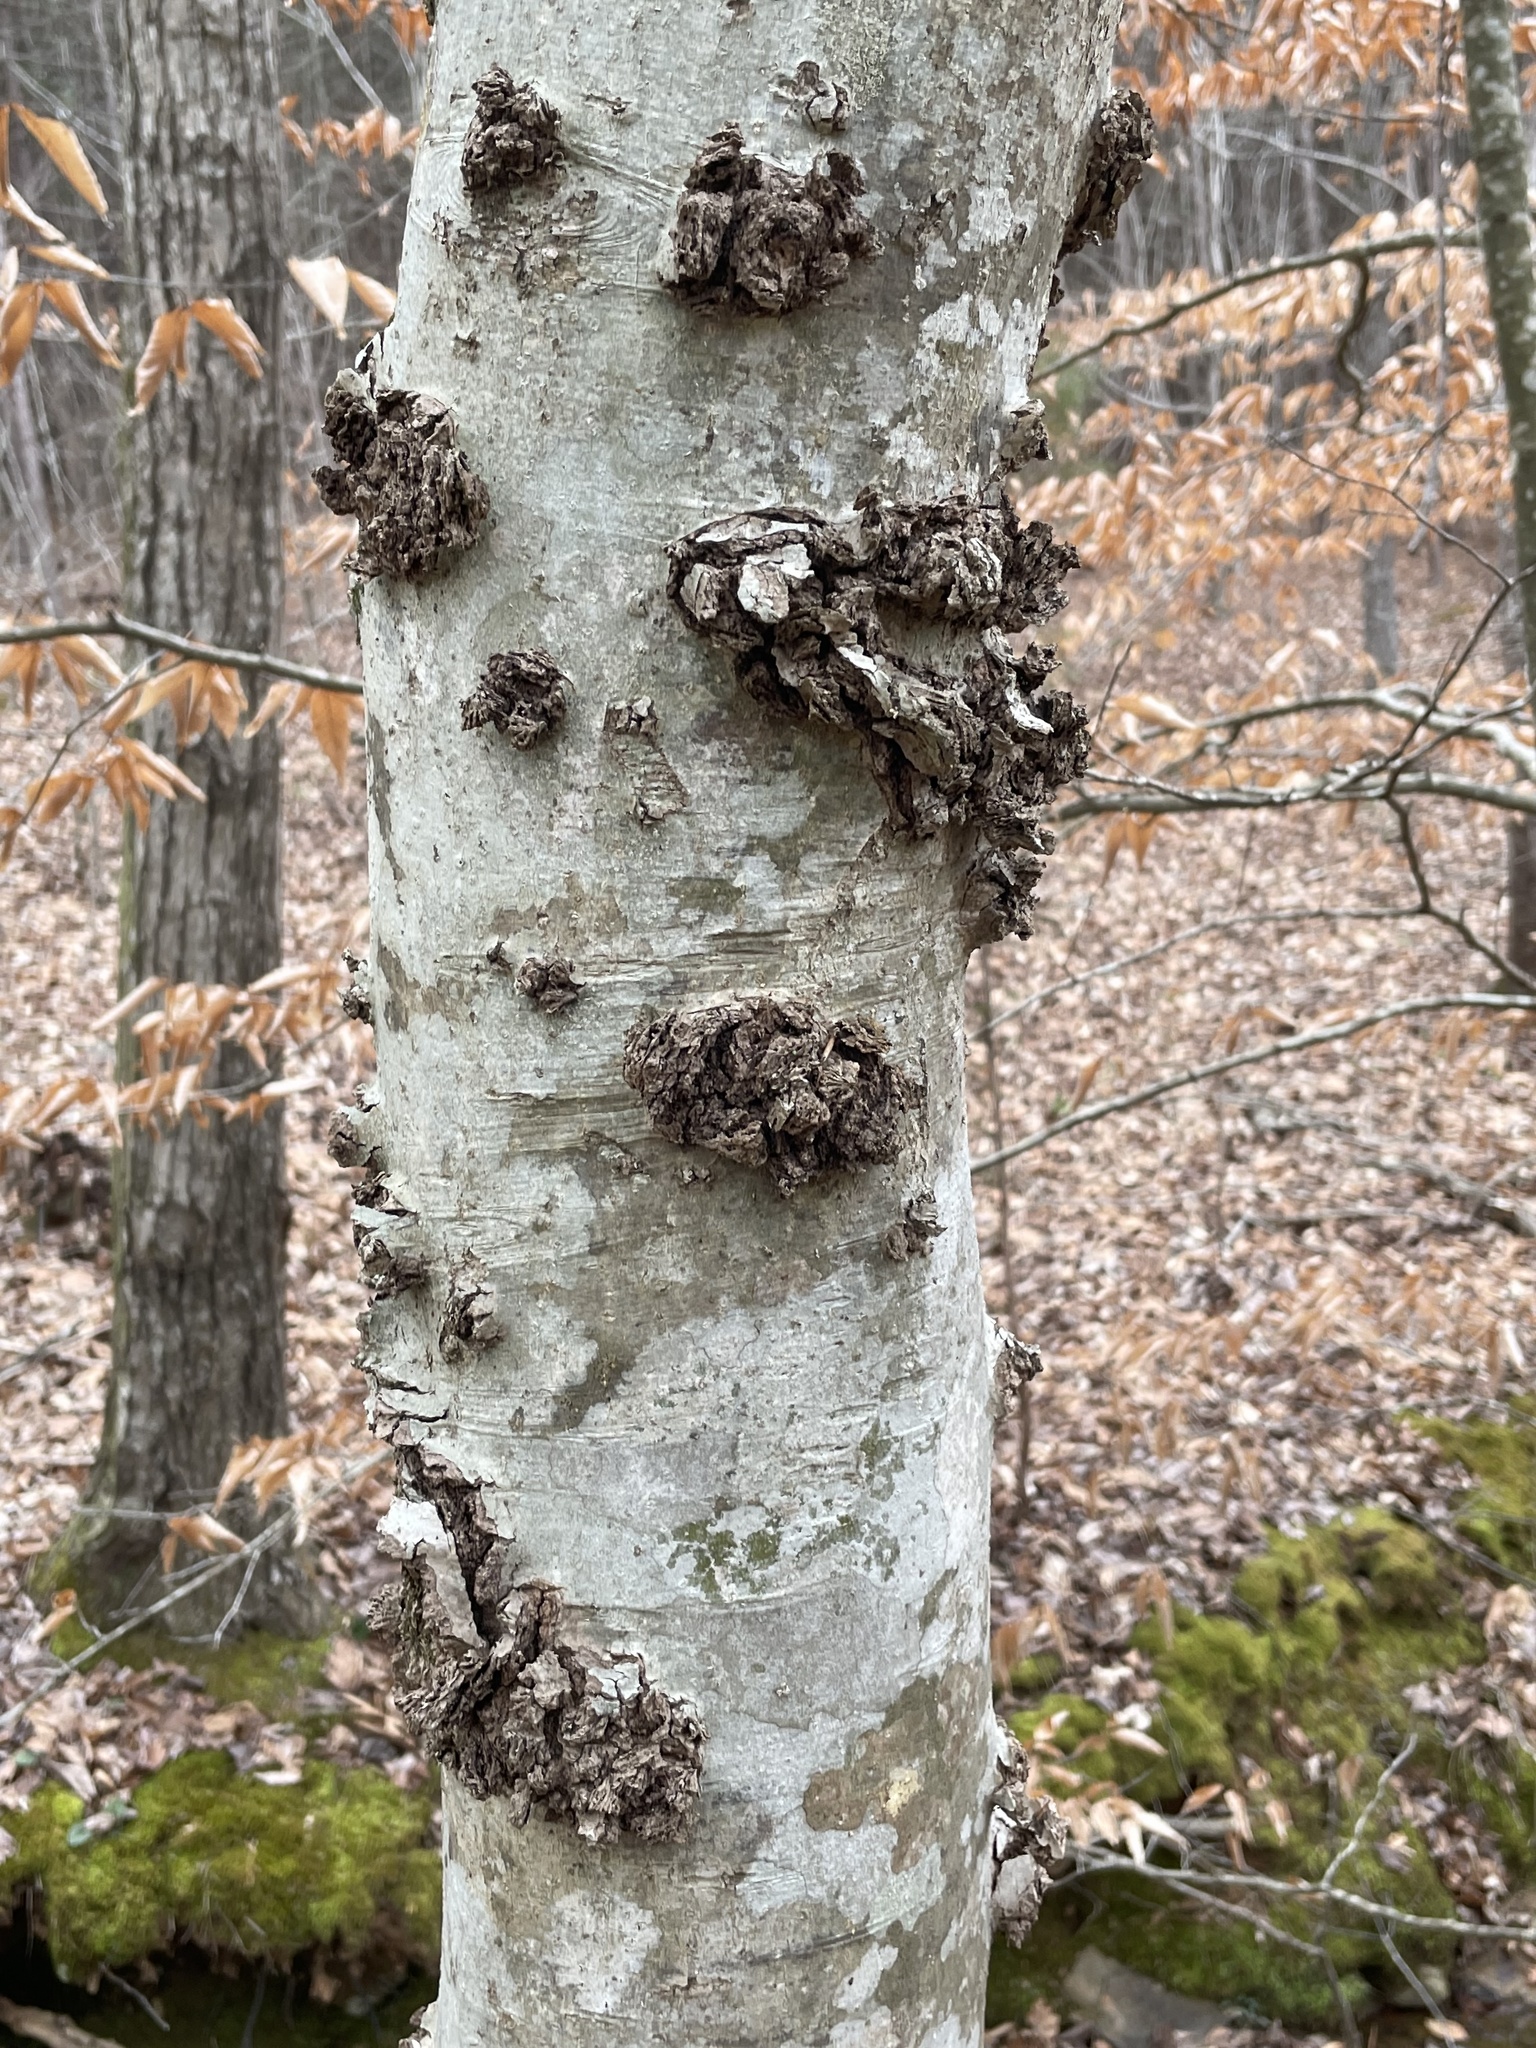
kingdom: Bacteria
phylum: Proteobacteria
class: Alphaproteobacteria
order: Rhizobiales
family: Rhizobiaceae
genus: Rhizobium
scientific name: Rhizobium Agrobacterium radiobacter
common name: Bacterial crown gall
